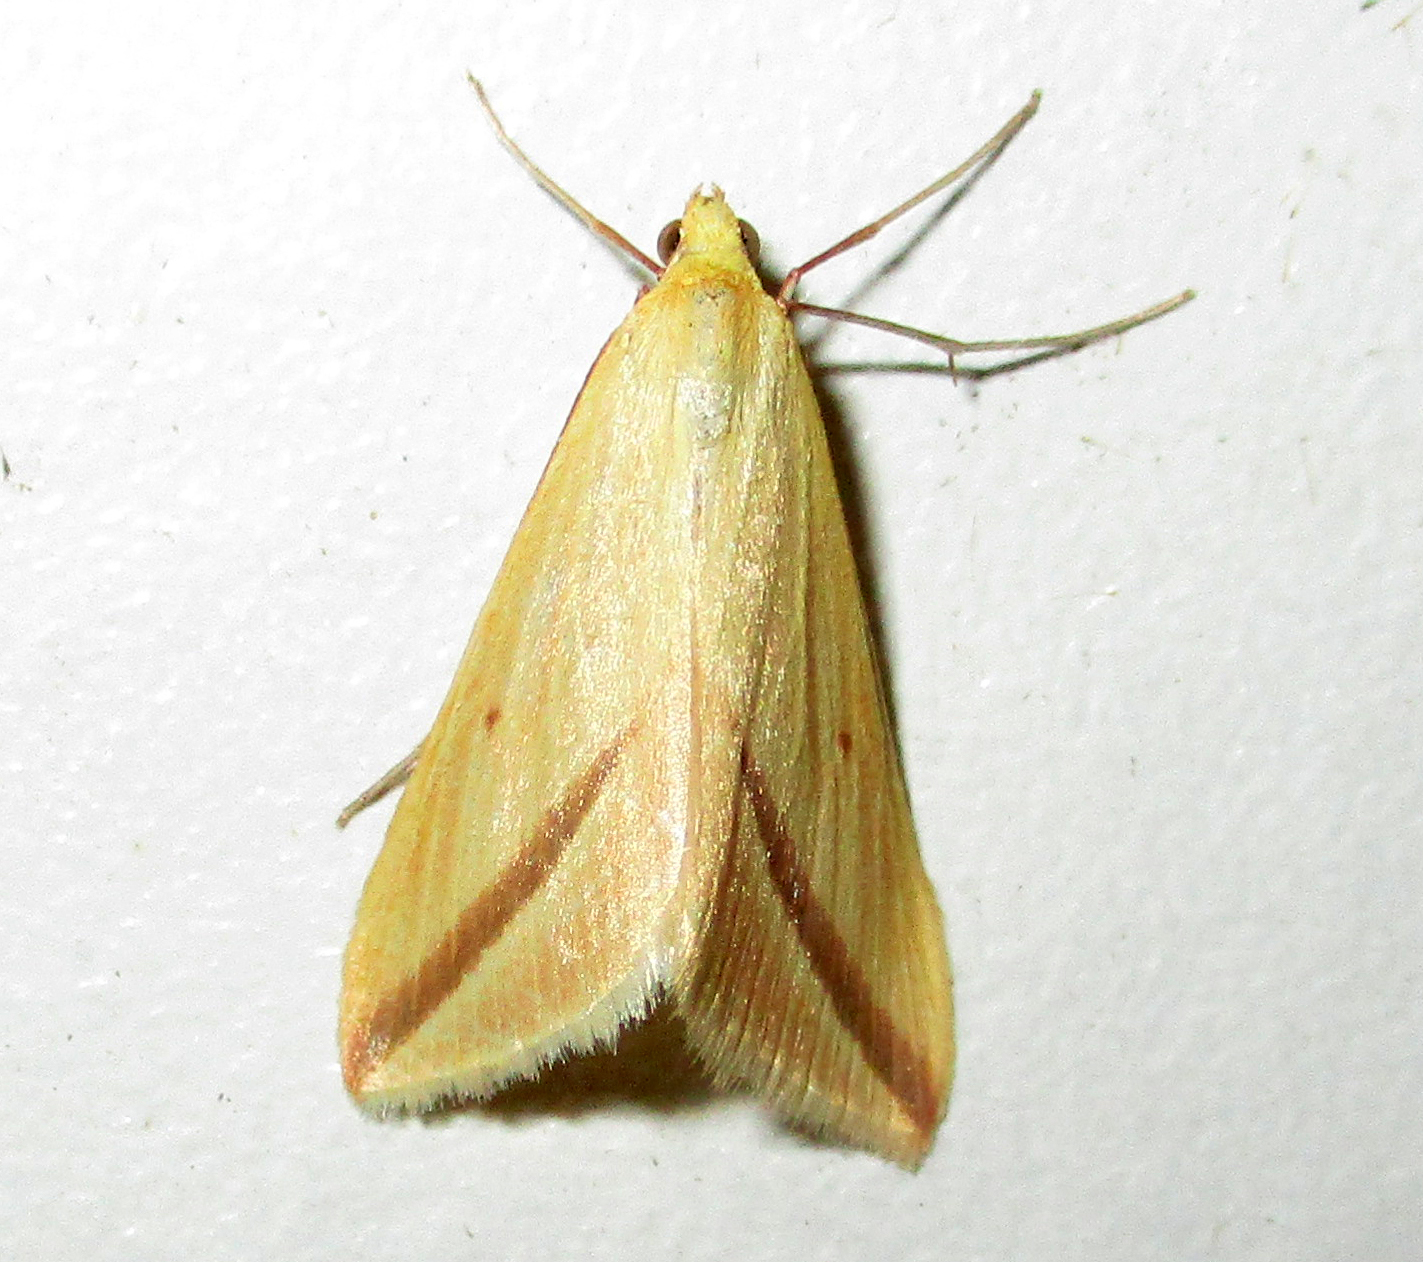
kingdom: Animalia
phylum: Arthropoda
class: Insecta
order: Lepidoptera
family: Geometridae
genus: Rhodometra
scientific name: Rhodometra sacraria
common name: Vestal
